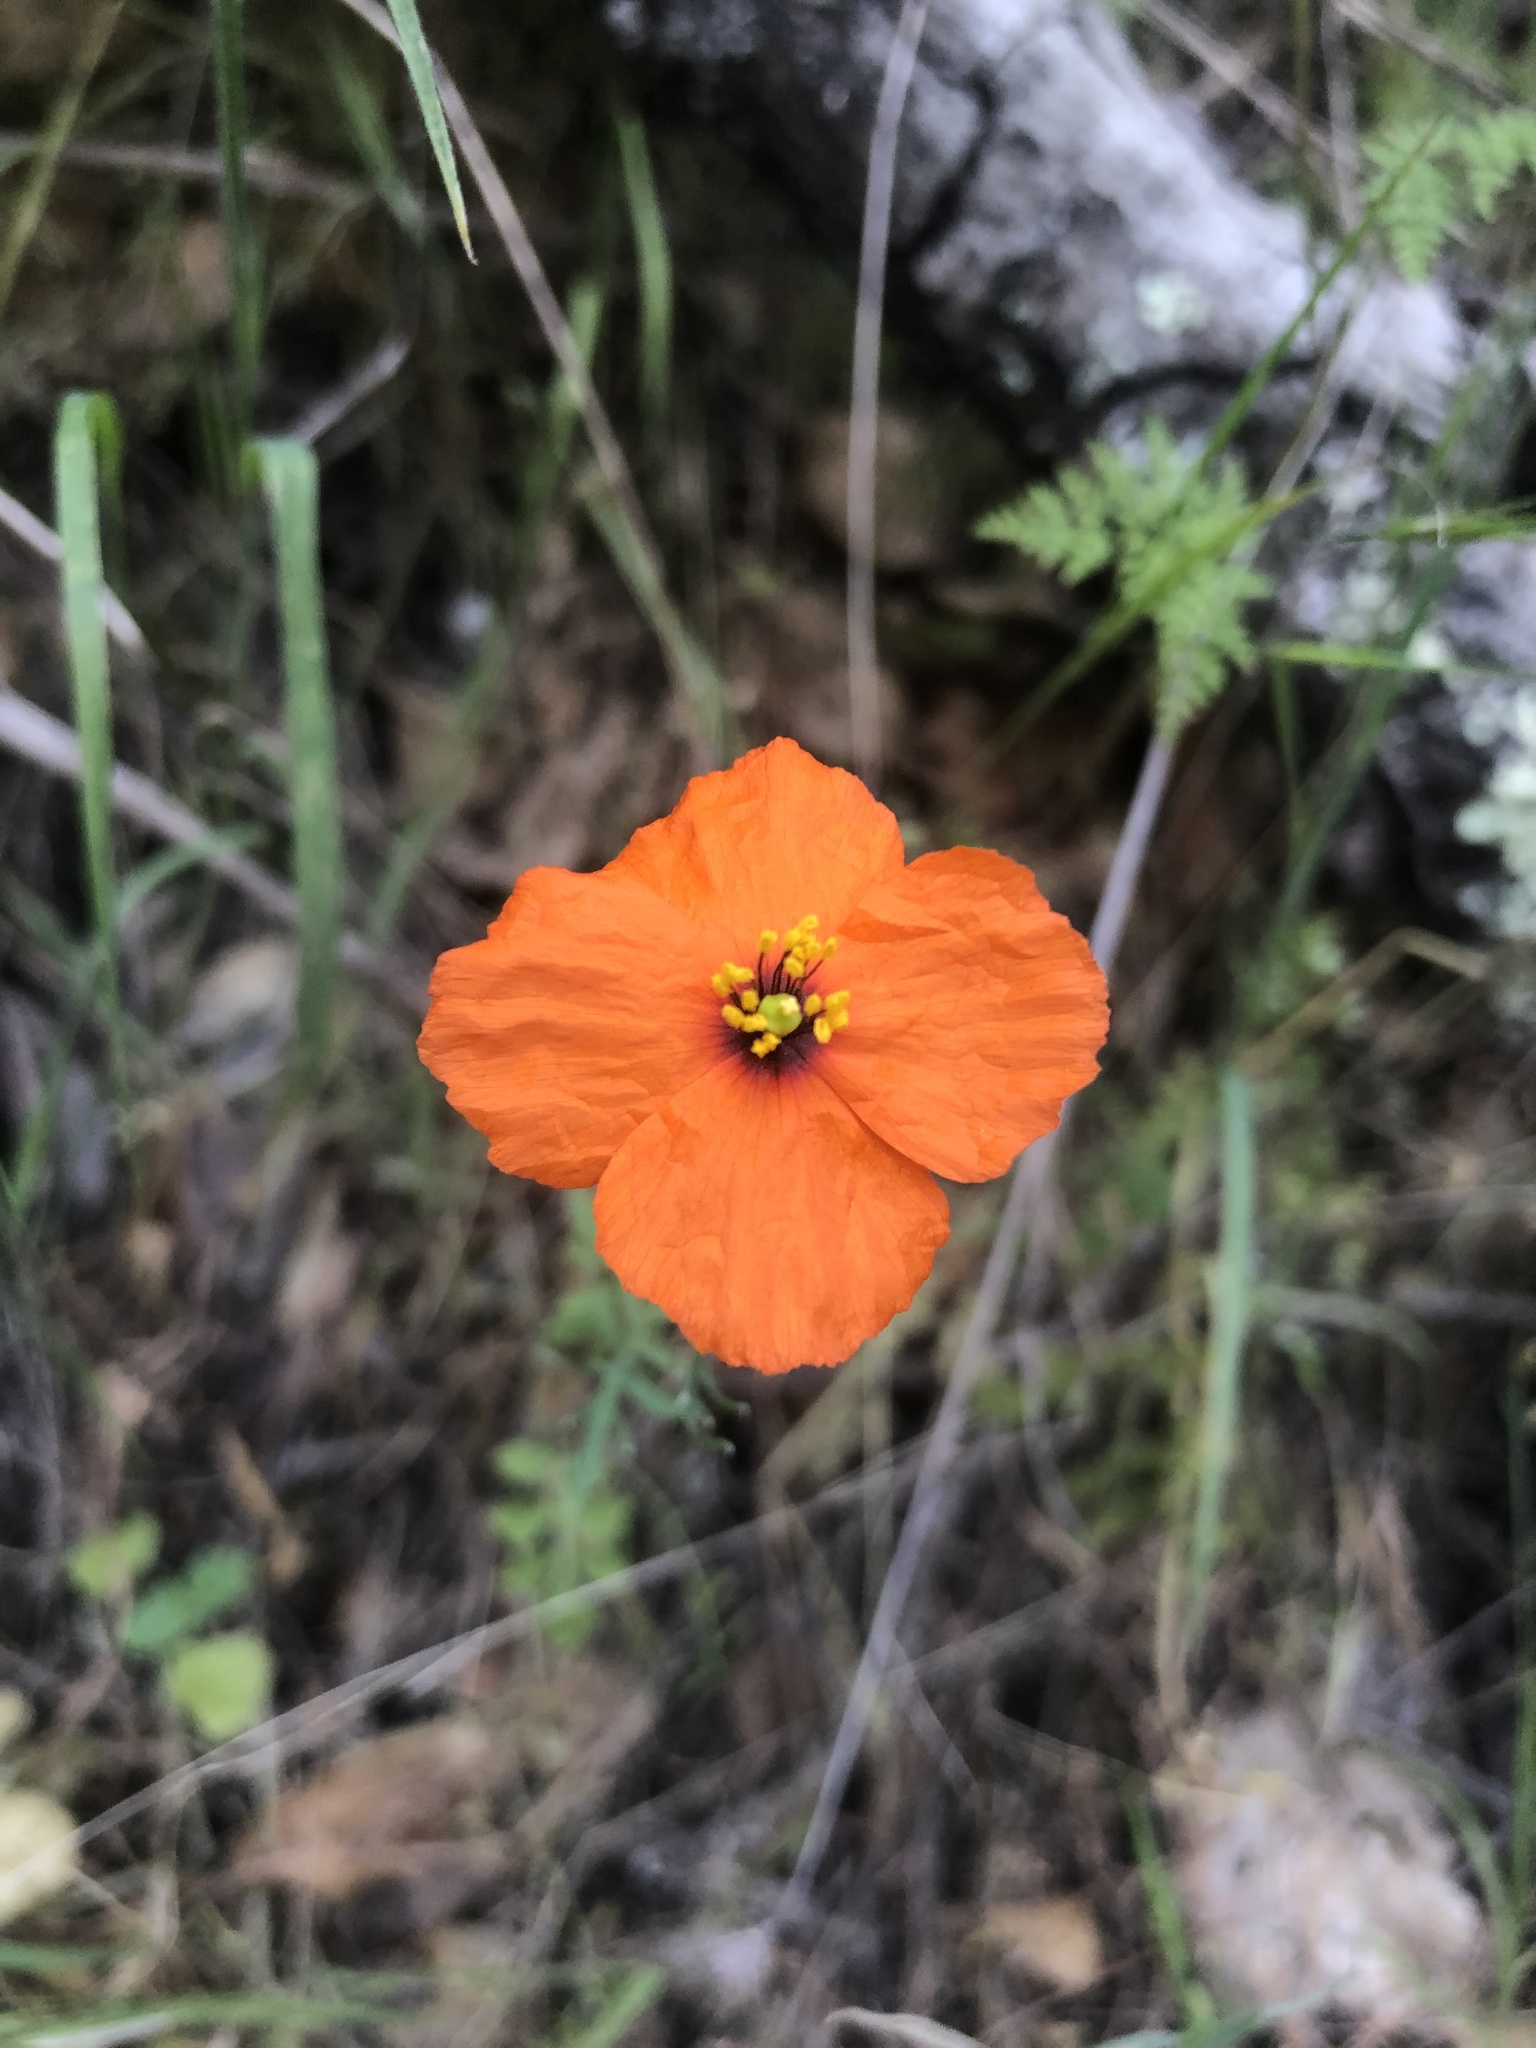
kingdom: Plantae
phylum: Tracheophyta
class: Magnoliopsida
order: Ranunculales
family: Papaveraceae
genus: Stylomecon
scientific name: Stylomecon heterophylla
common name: Flaming-poppy
